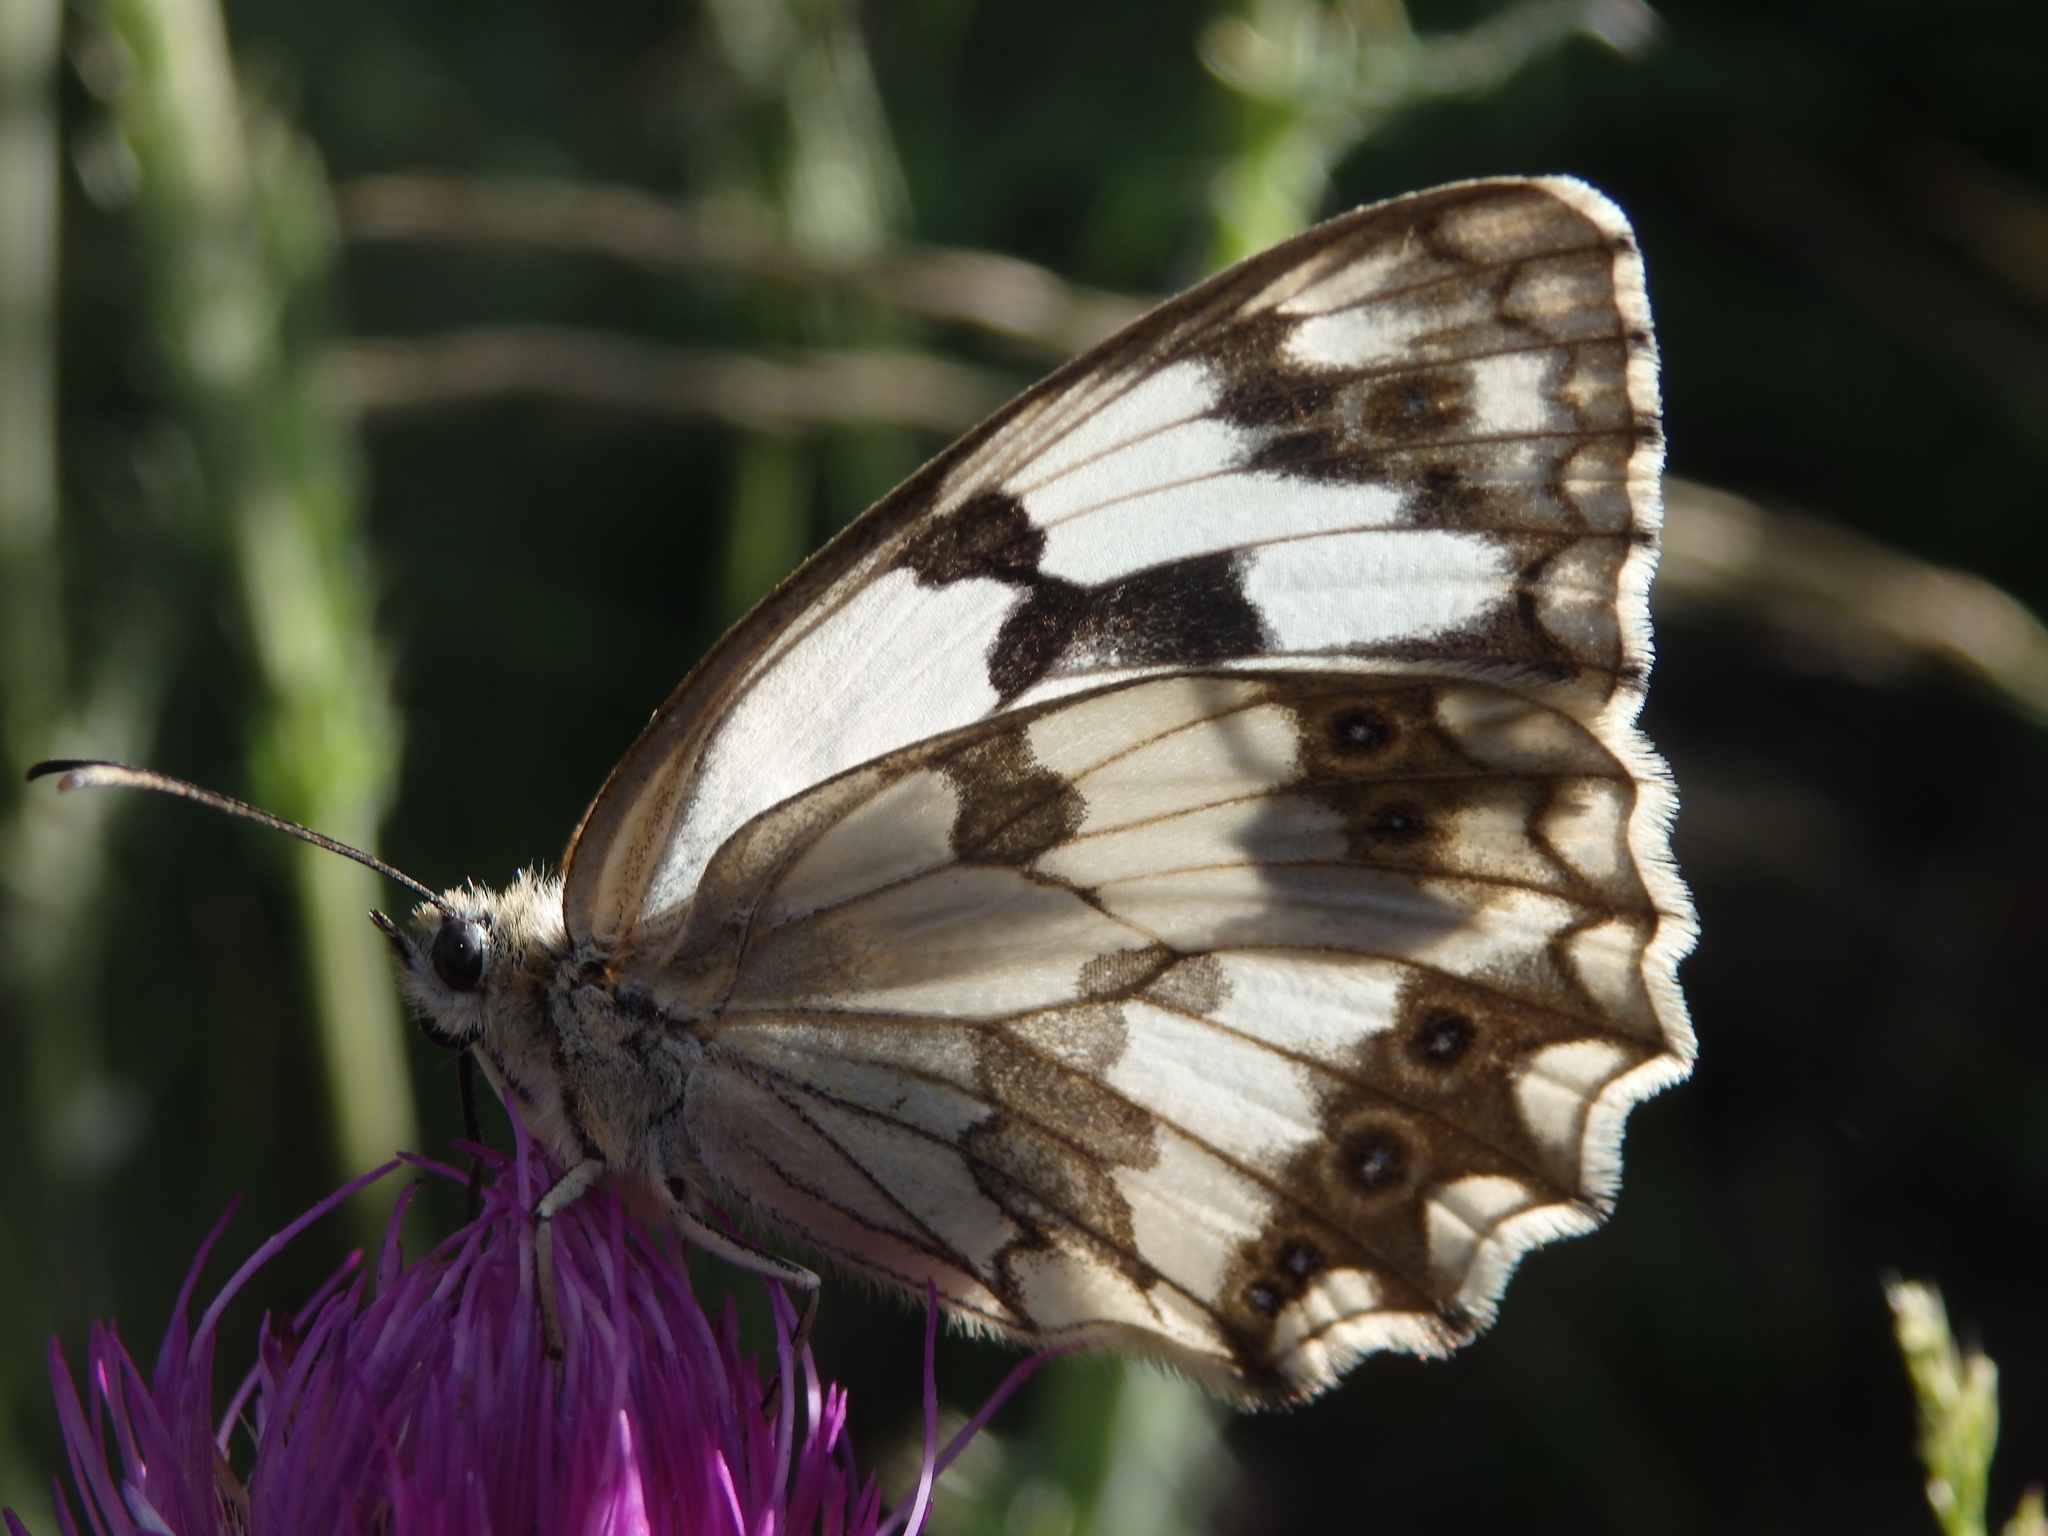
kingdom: Animalia
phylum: Arthropoda
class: Insecta
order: Lepidoptera
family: Nymphalidae
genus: Melanargia
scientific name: Melanargia lachesis
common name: Iberian marbled white
